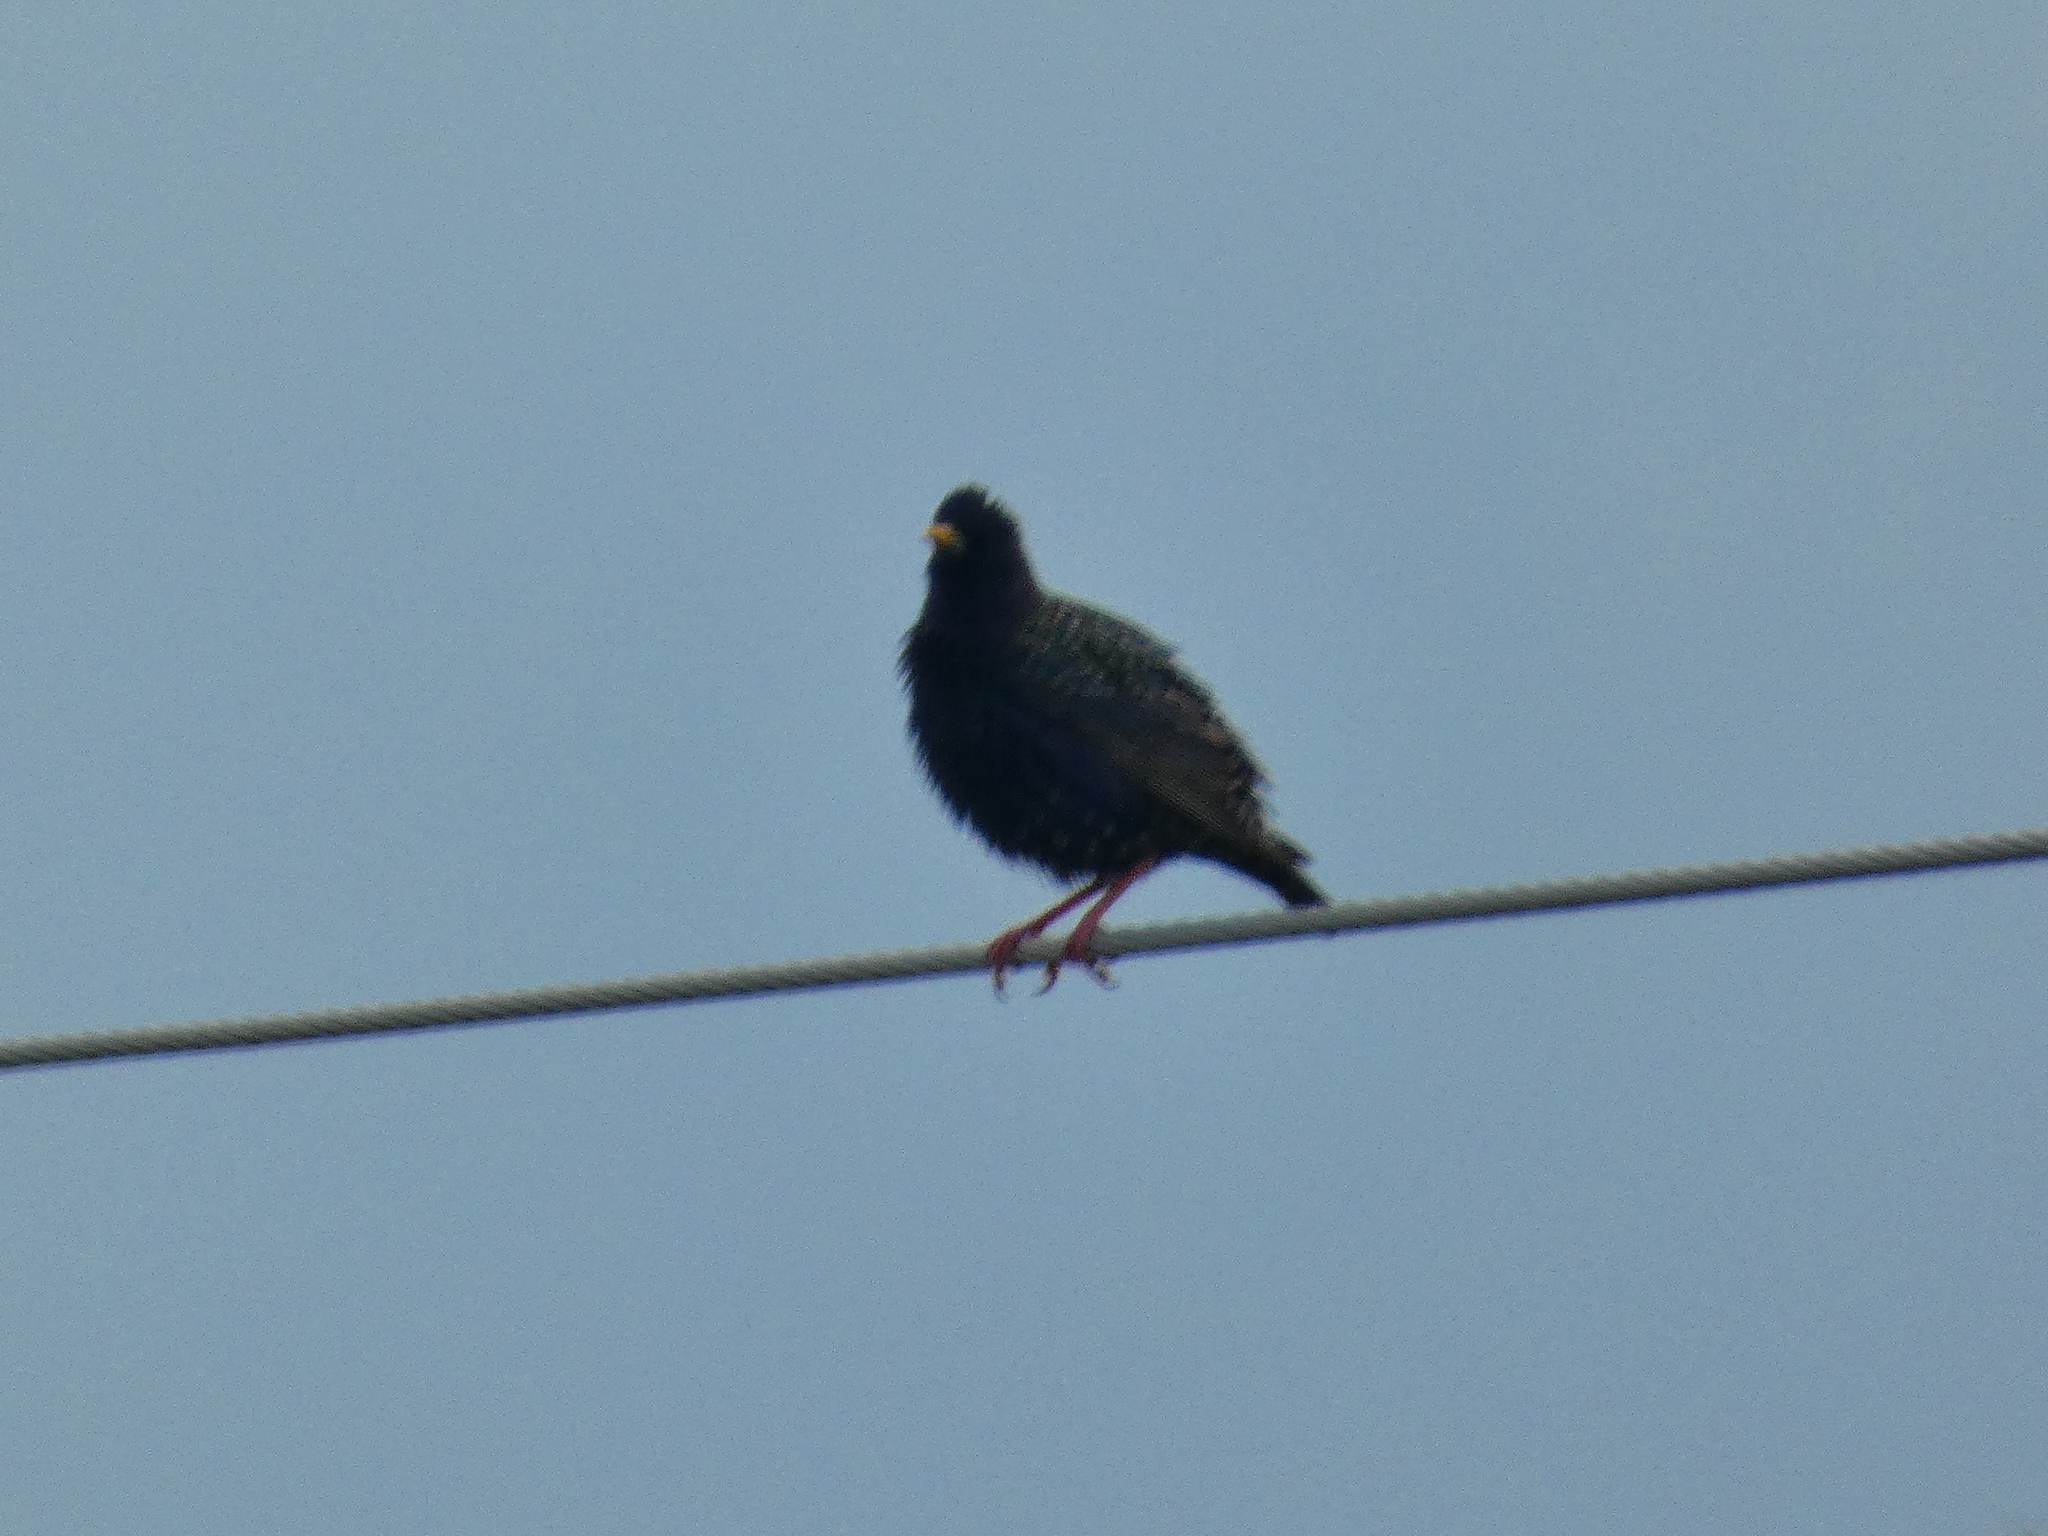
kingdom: Animalia
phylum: Chordata
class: Aves
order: Passeriformes
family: Sturnidae
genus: Sturnus
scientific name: Sturnus vulgaris
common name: Common starling
